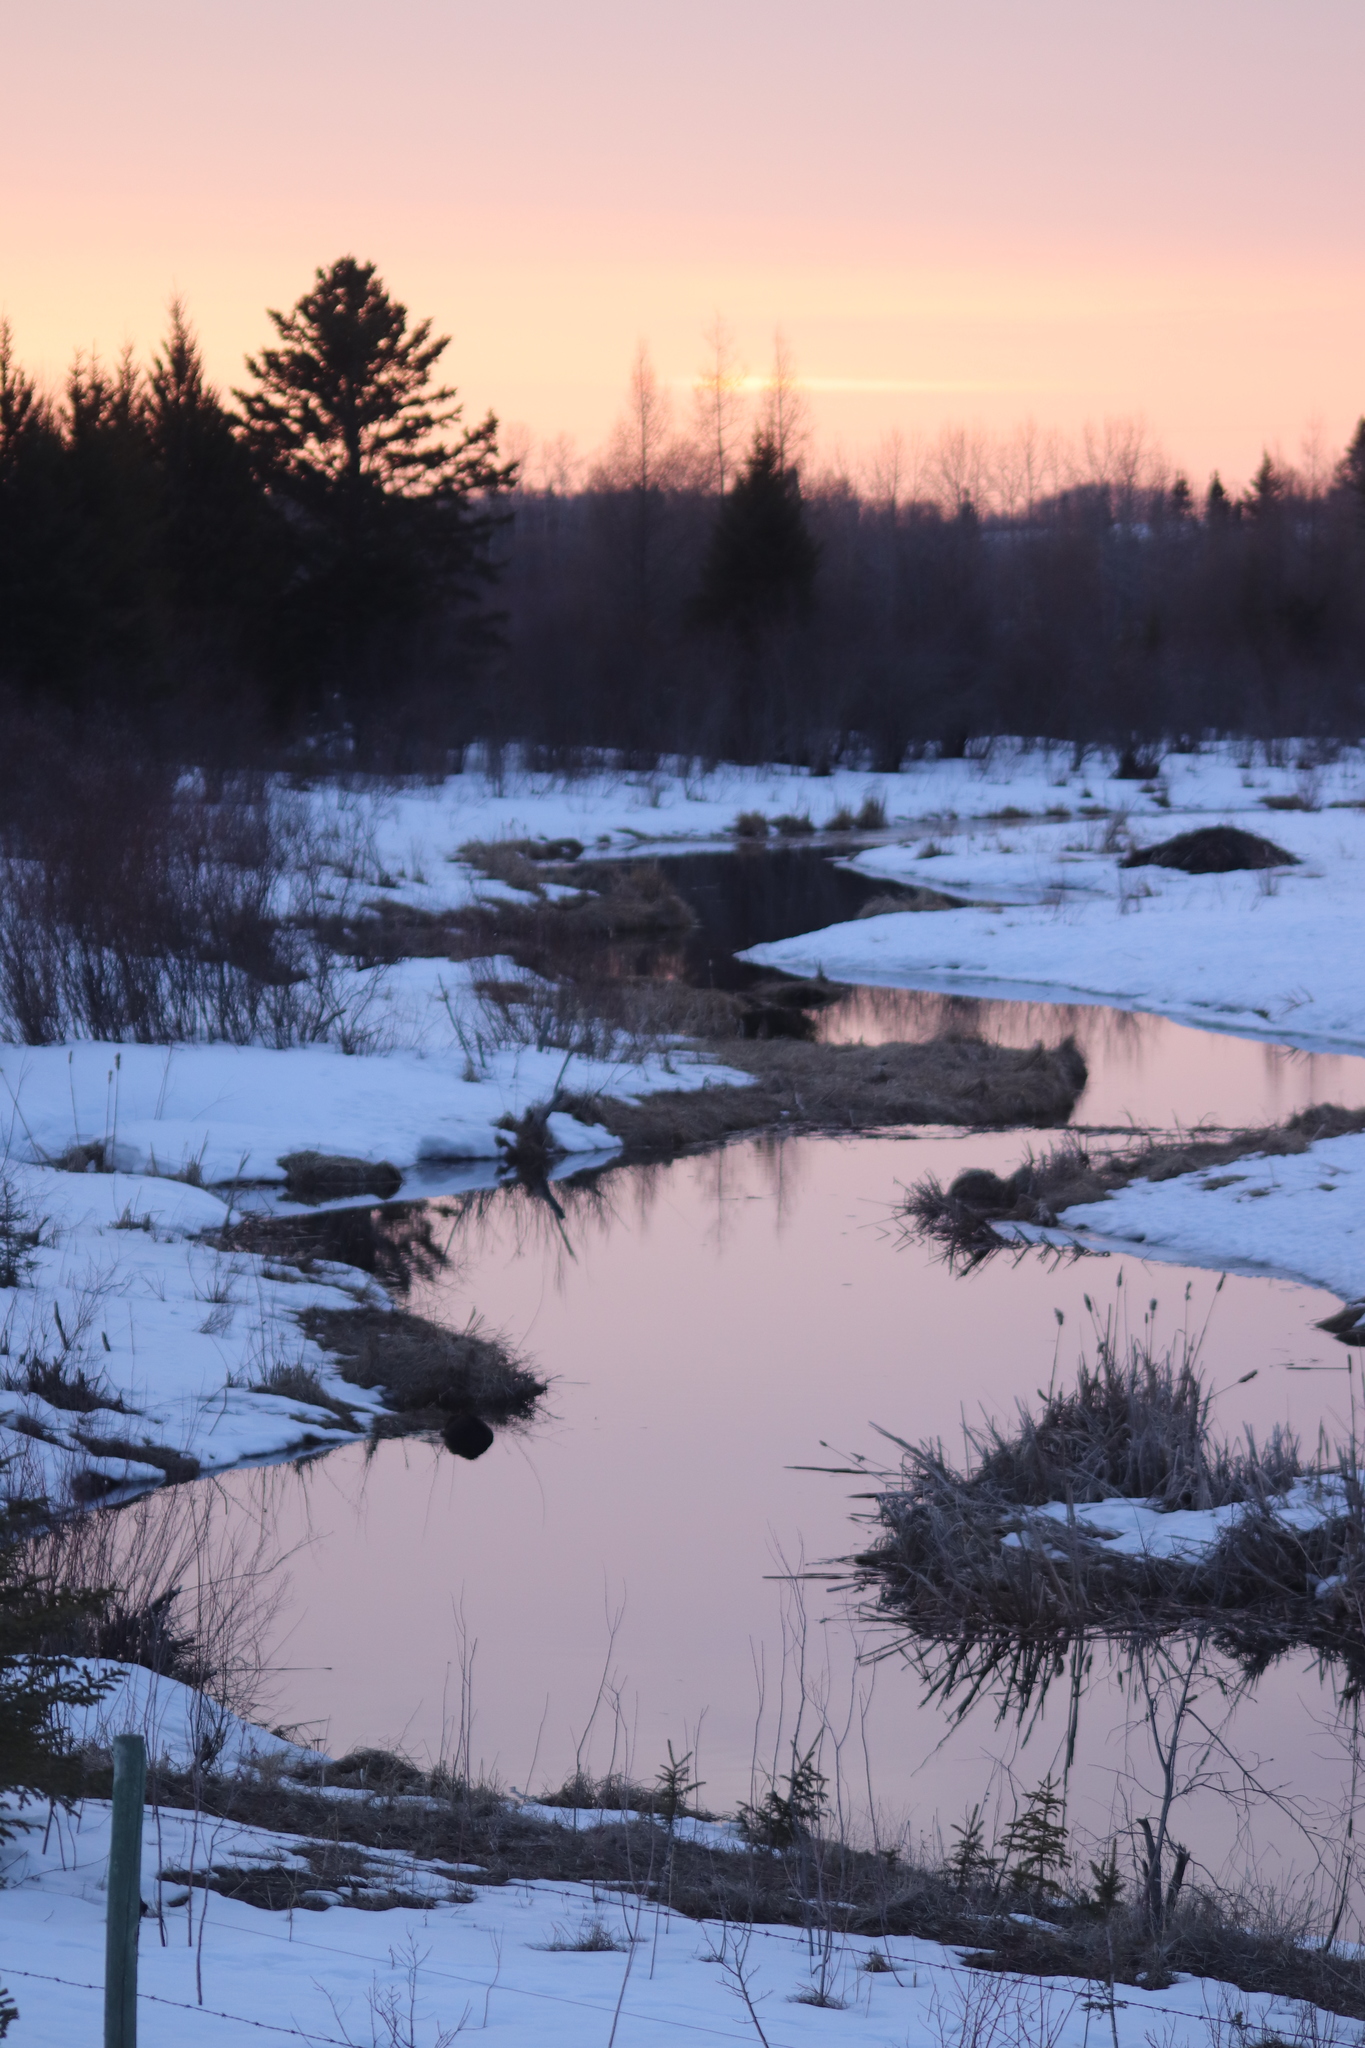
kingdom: Animalia
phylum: Chordata
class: Mammalia
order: Rodentia
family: Castoridae
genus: Castor
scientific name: Castor canadensis
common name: American beaver
